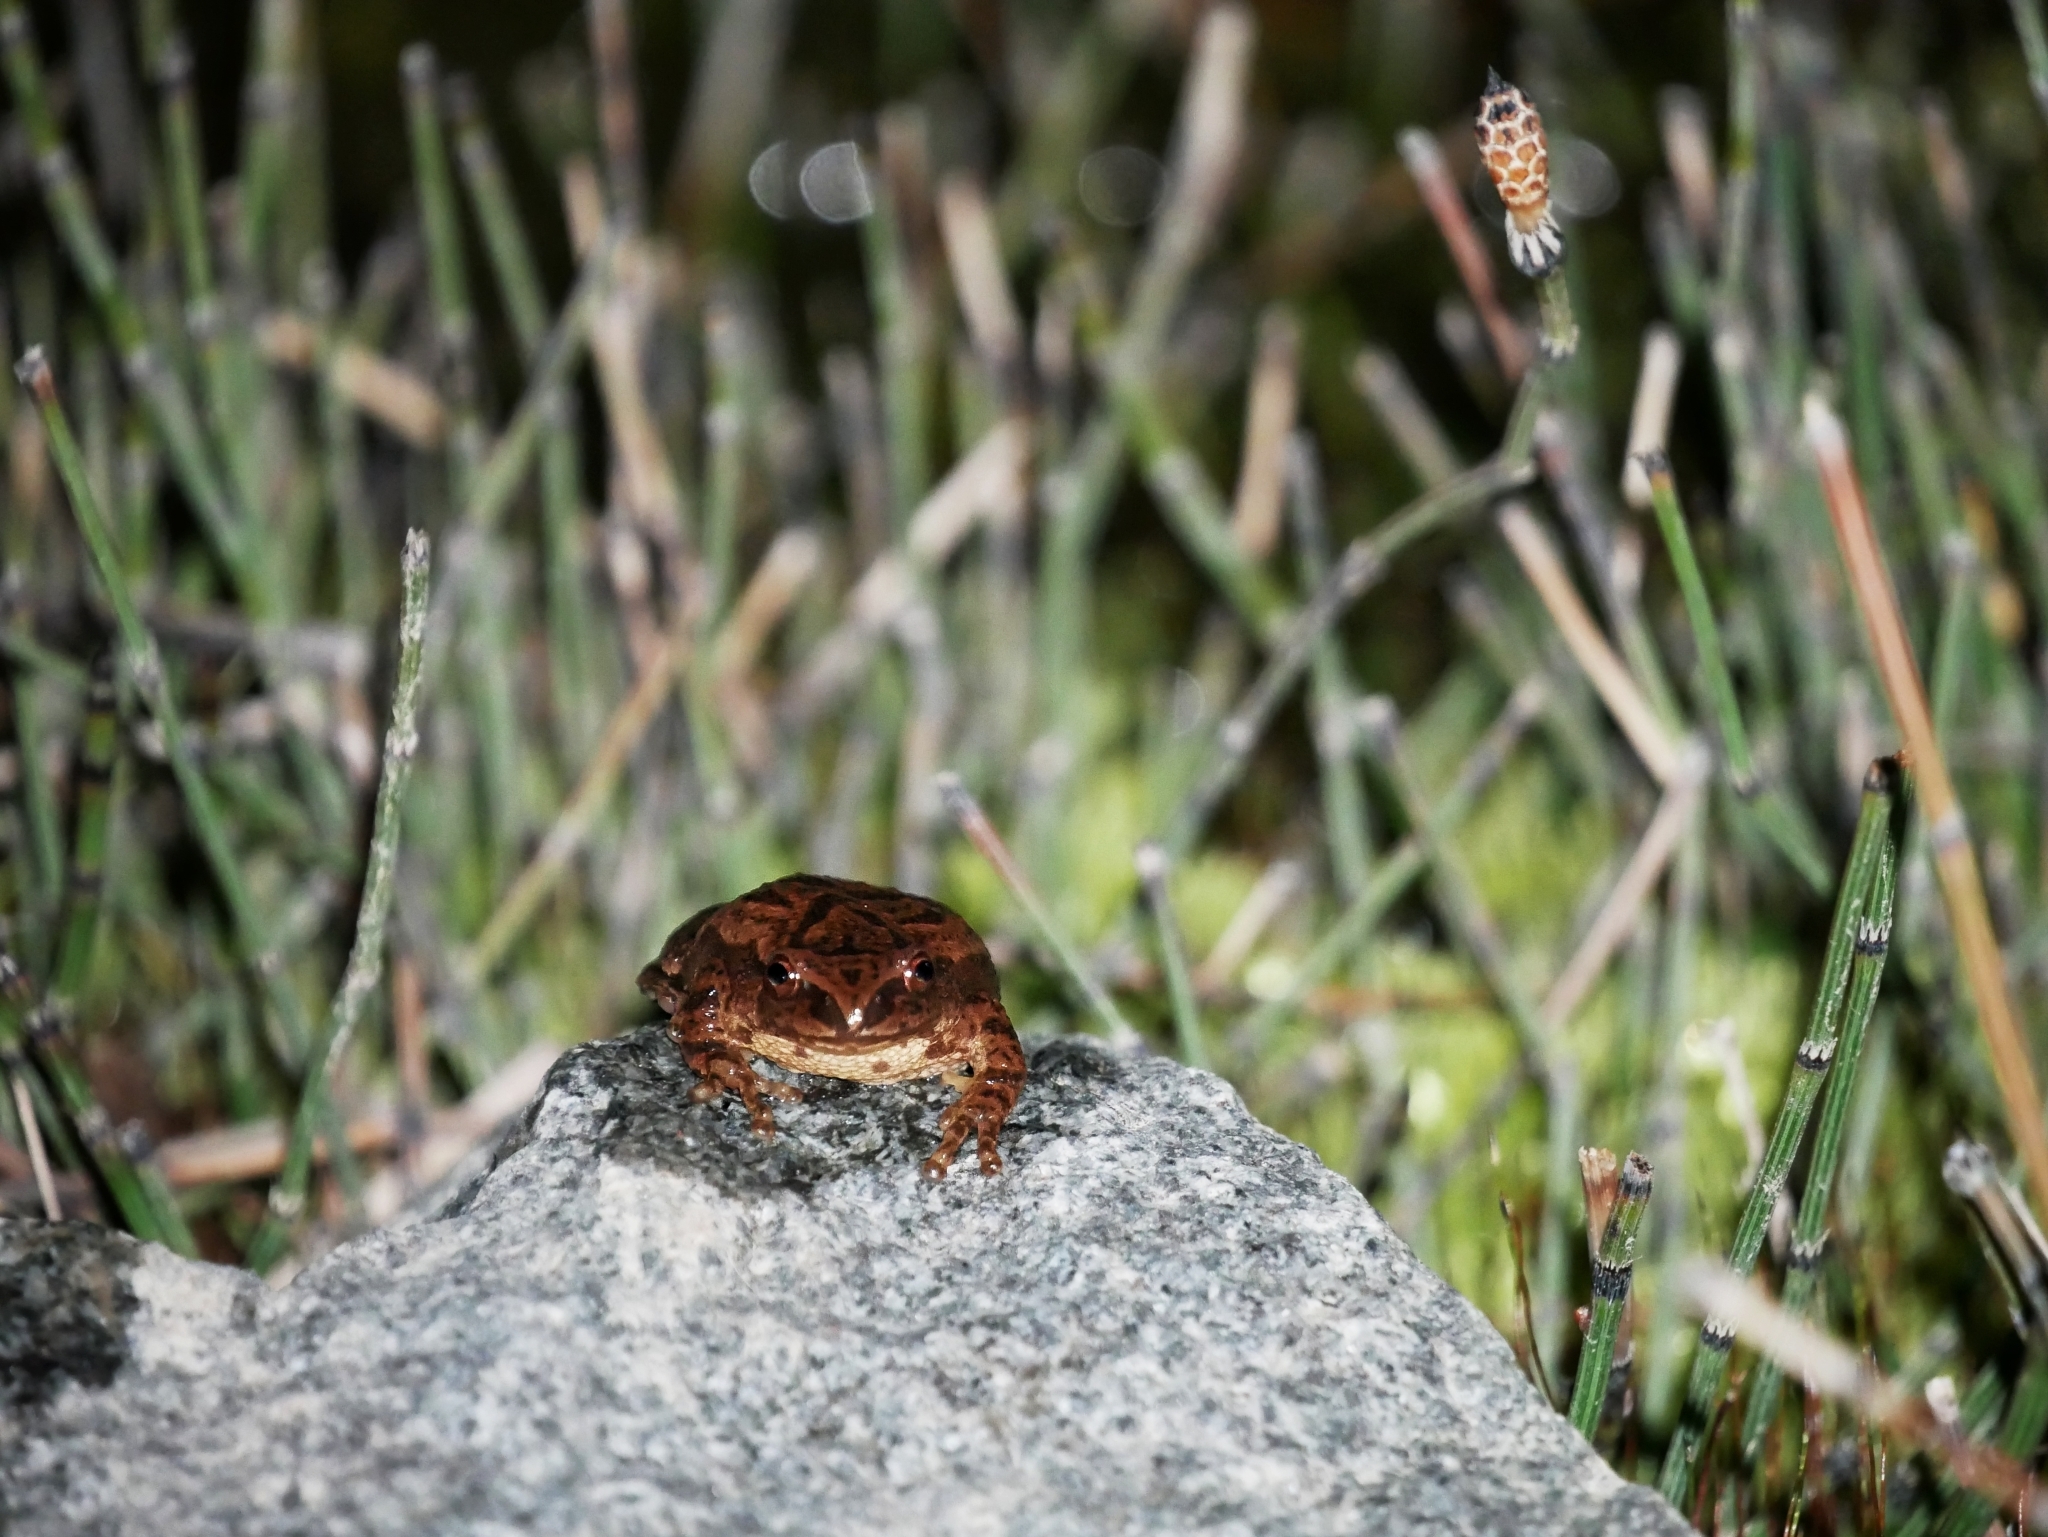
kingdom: Animalia
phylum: Chordata
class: Amphibia
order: Anura
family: Hylidae
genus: Pseudacris
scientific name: Pseudacris crucifer
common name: Spring peeper
